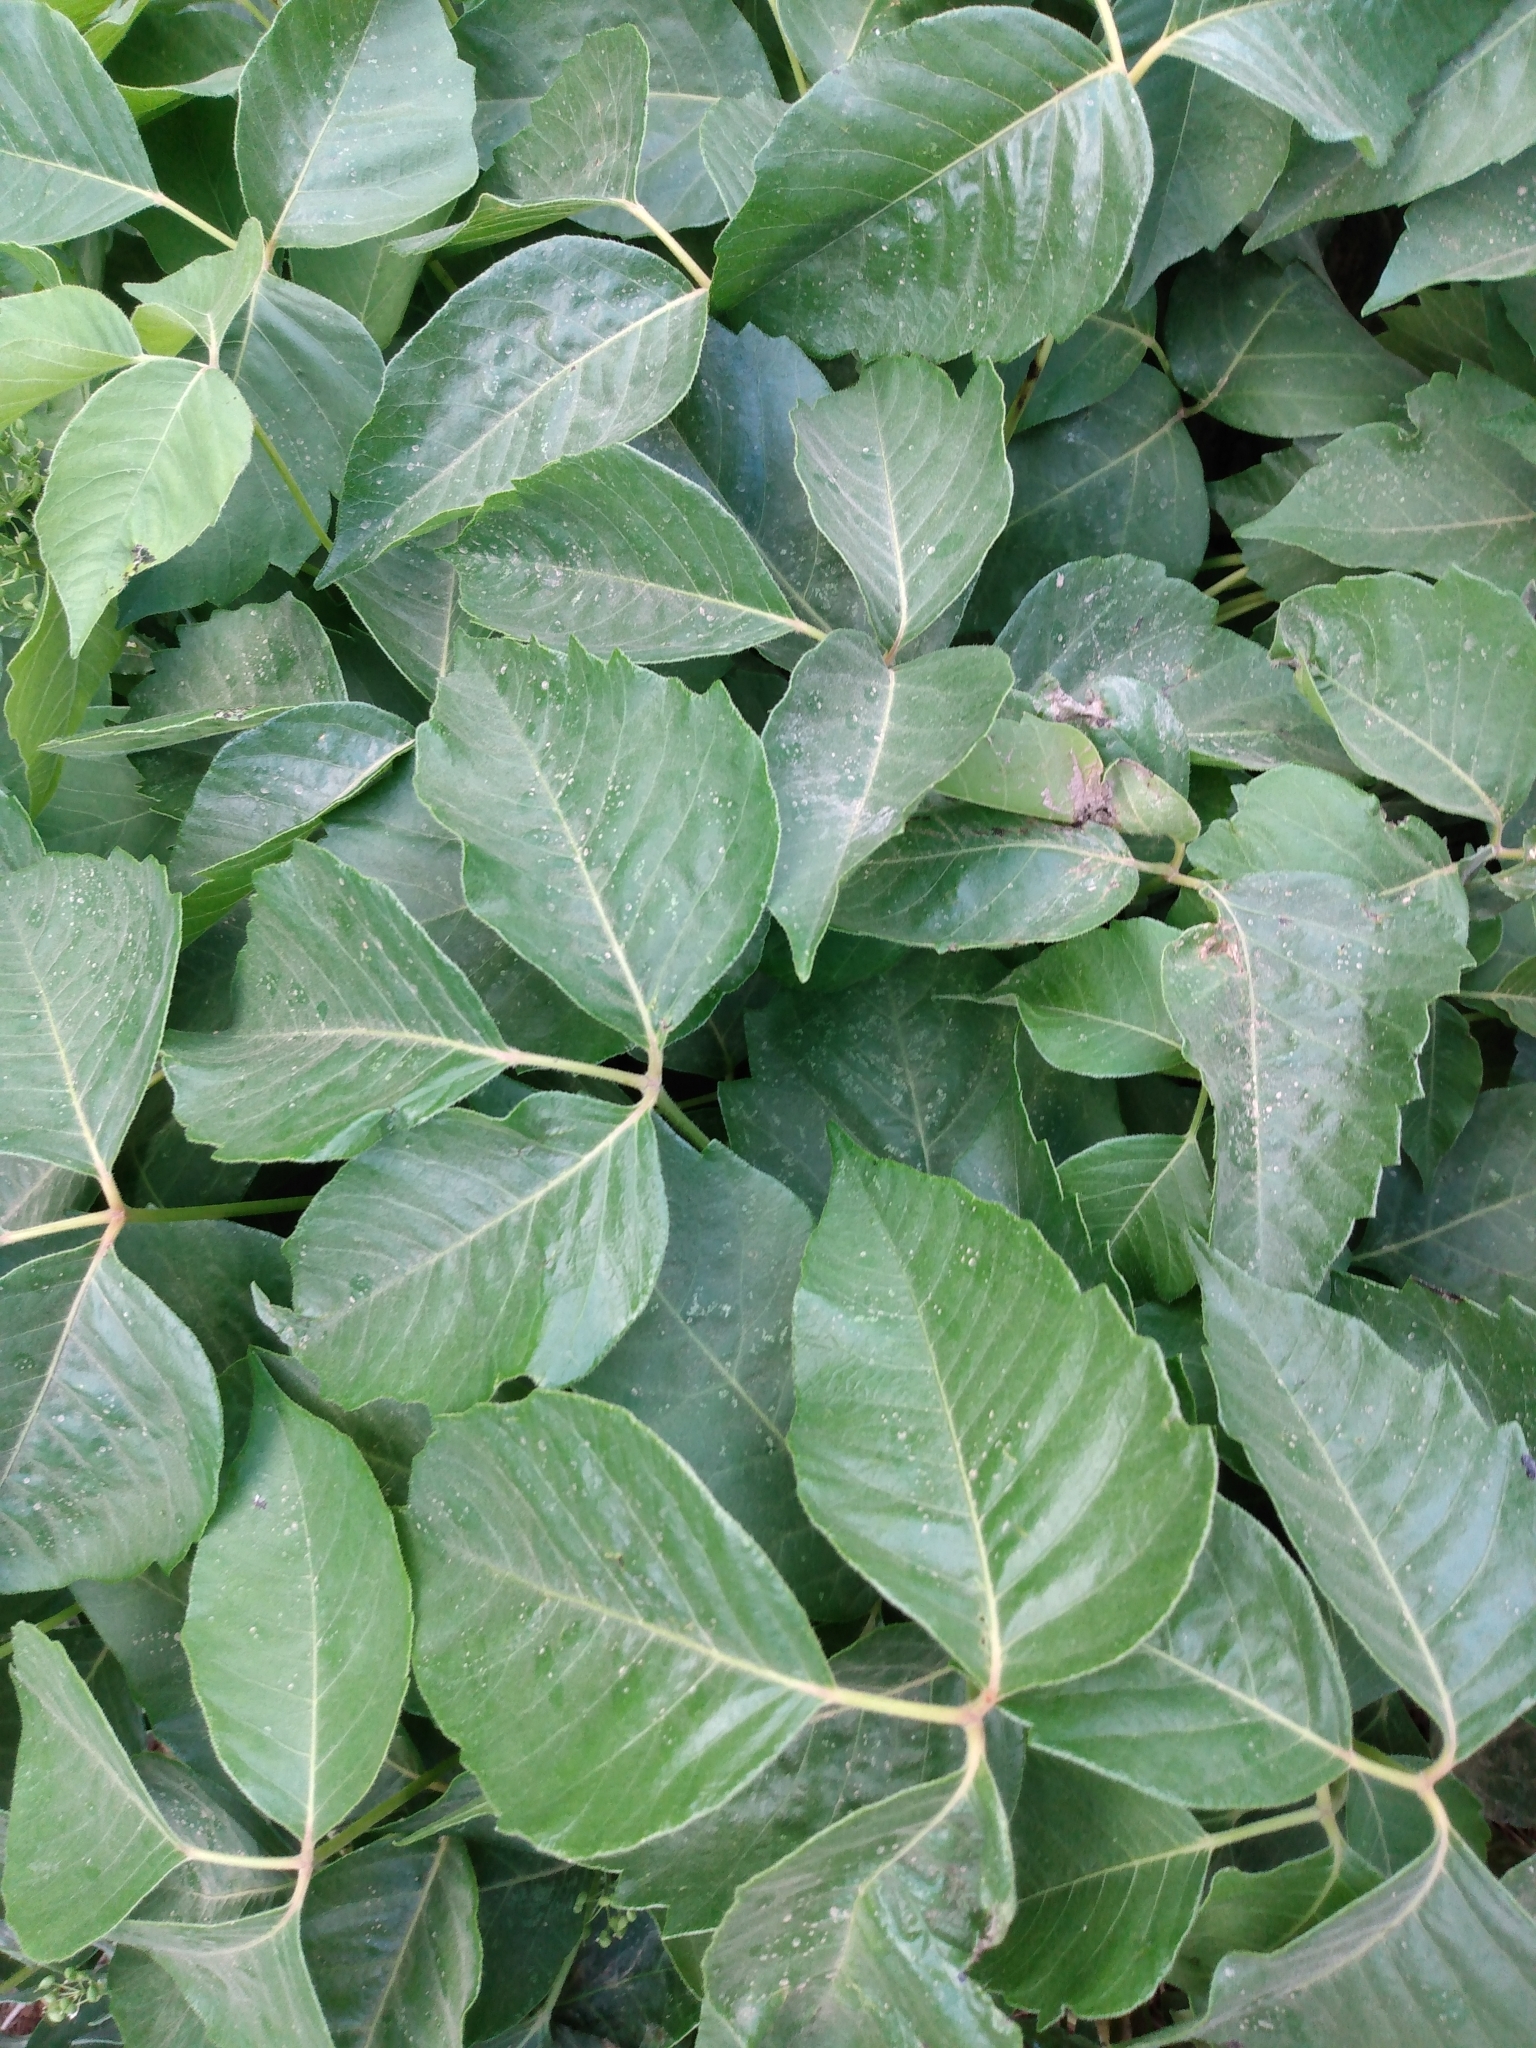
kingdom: Plantae
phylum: Tracheophyta
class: Magnoliopsida
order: Sapindales
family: Anacardiaceae
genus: Toxicodendron
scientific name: Toxicodendron rydbergii
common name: Rydberg's poison-ivy
